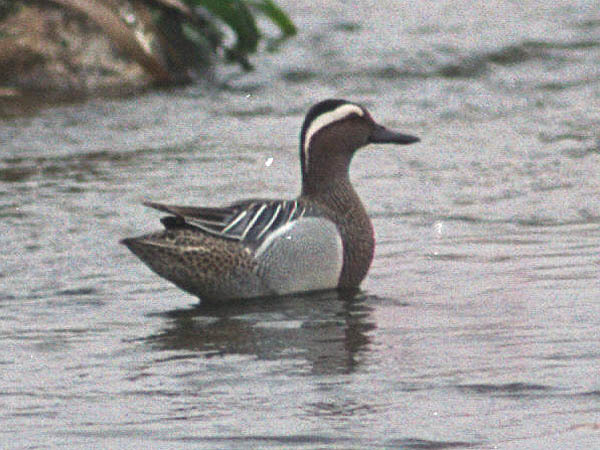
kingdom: Animalia
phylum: Chordata
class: Aves
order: Anseriformes
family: Anatidae
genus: Spatula
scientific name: Spatula querquedula
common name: Garganey
